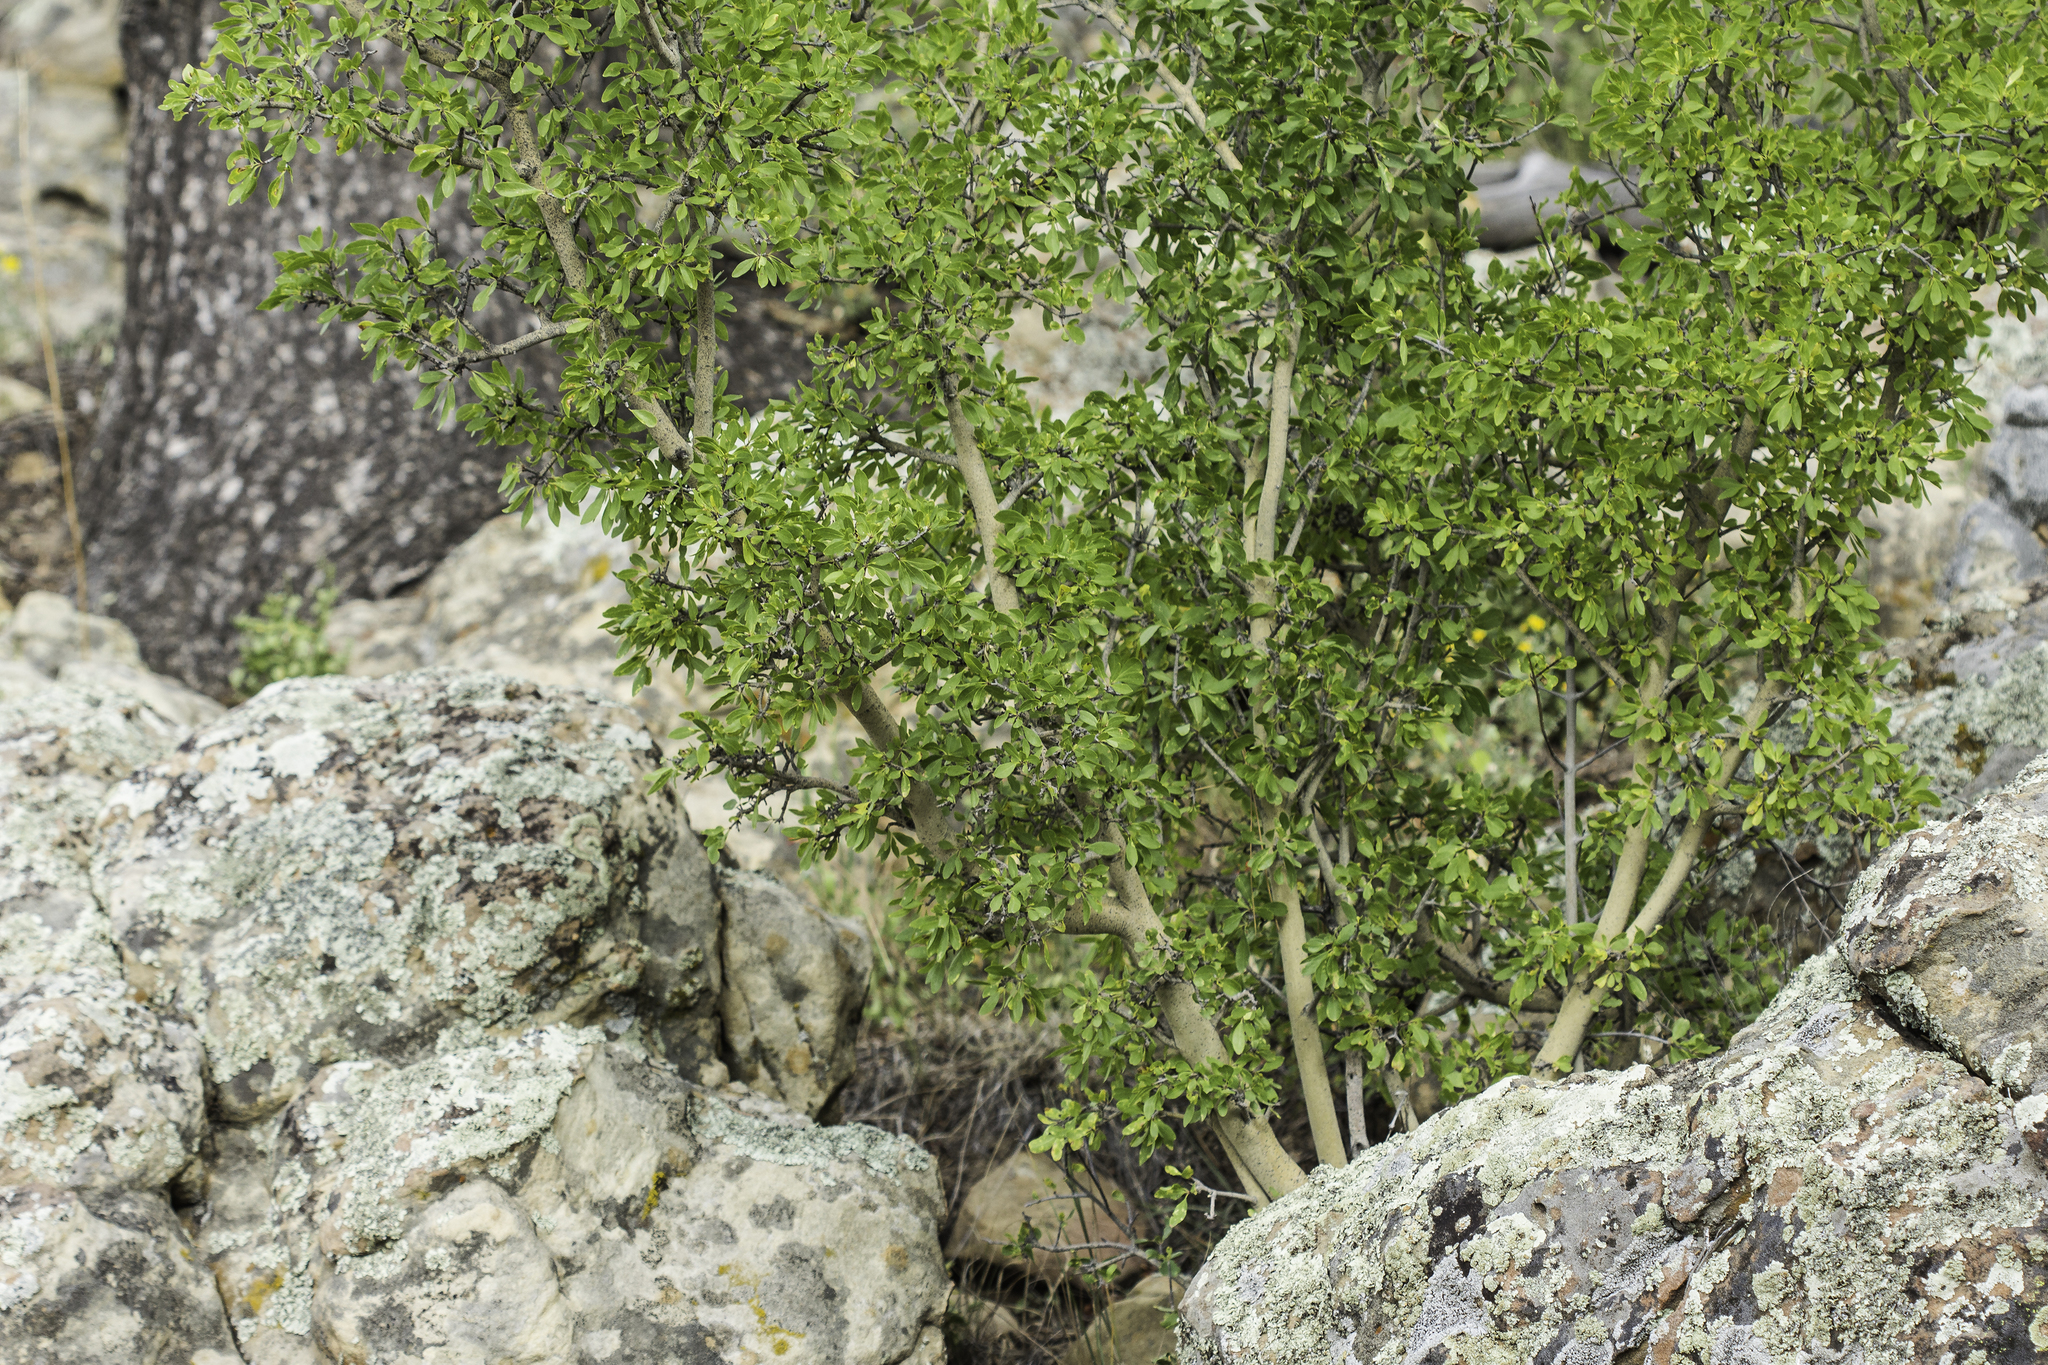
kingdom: Plantae
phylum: Tracheophyta
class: Magnoliopsida
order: Lamiales
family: Oleaceae
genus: Forestiera
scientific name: Forestiera pubescens
